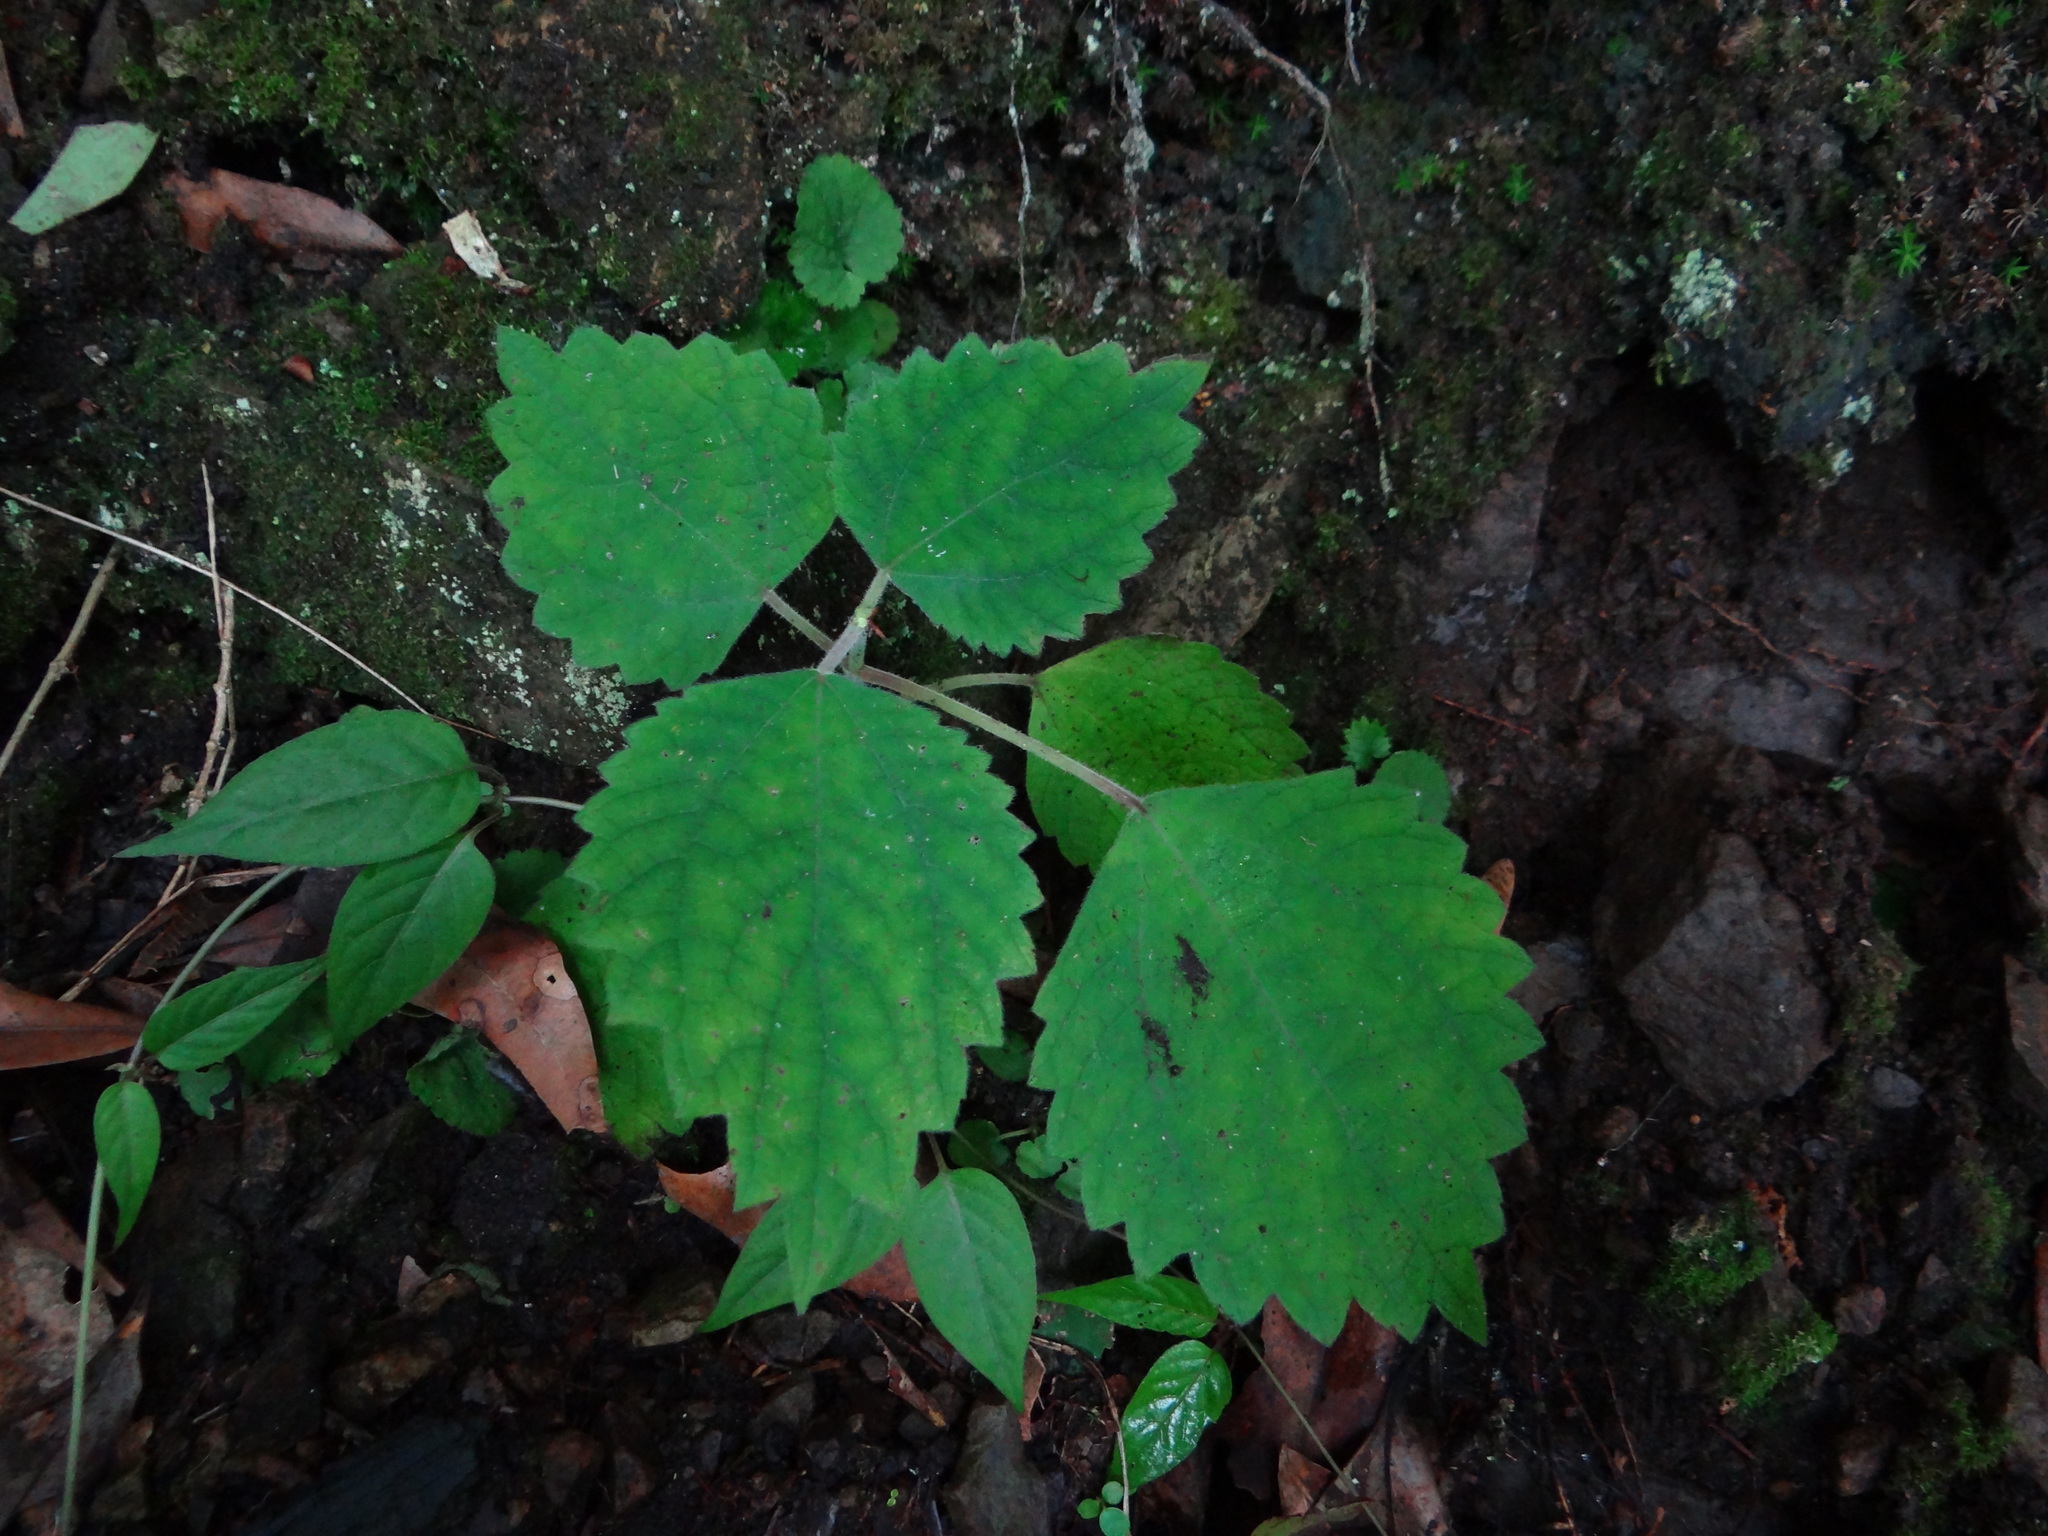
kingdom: Plantae
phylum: Tracheophyta
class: Magnoliopsida
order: Rosales
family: Urticaceae
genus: Boehmeria
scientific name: Boehmeria japonica
